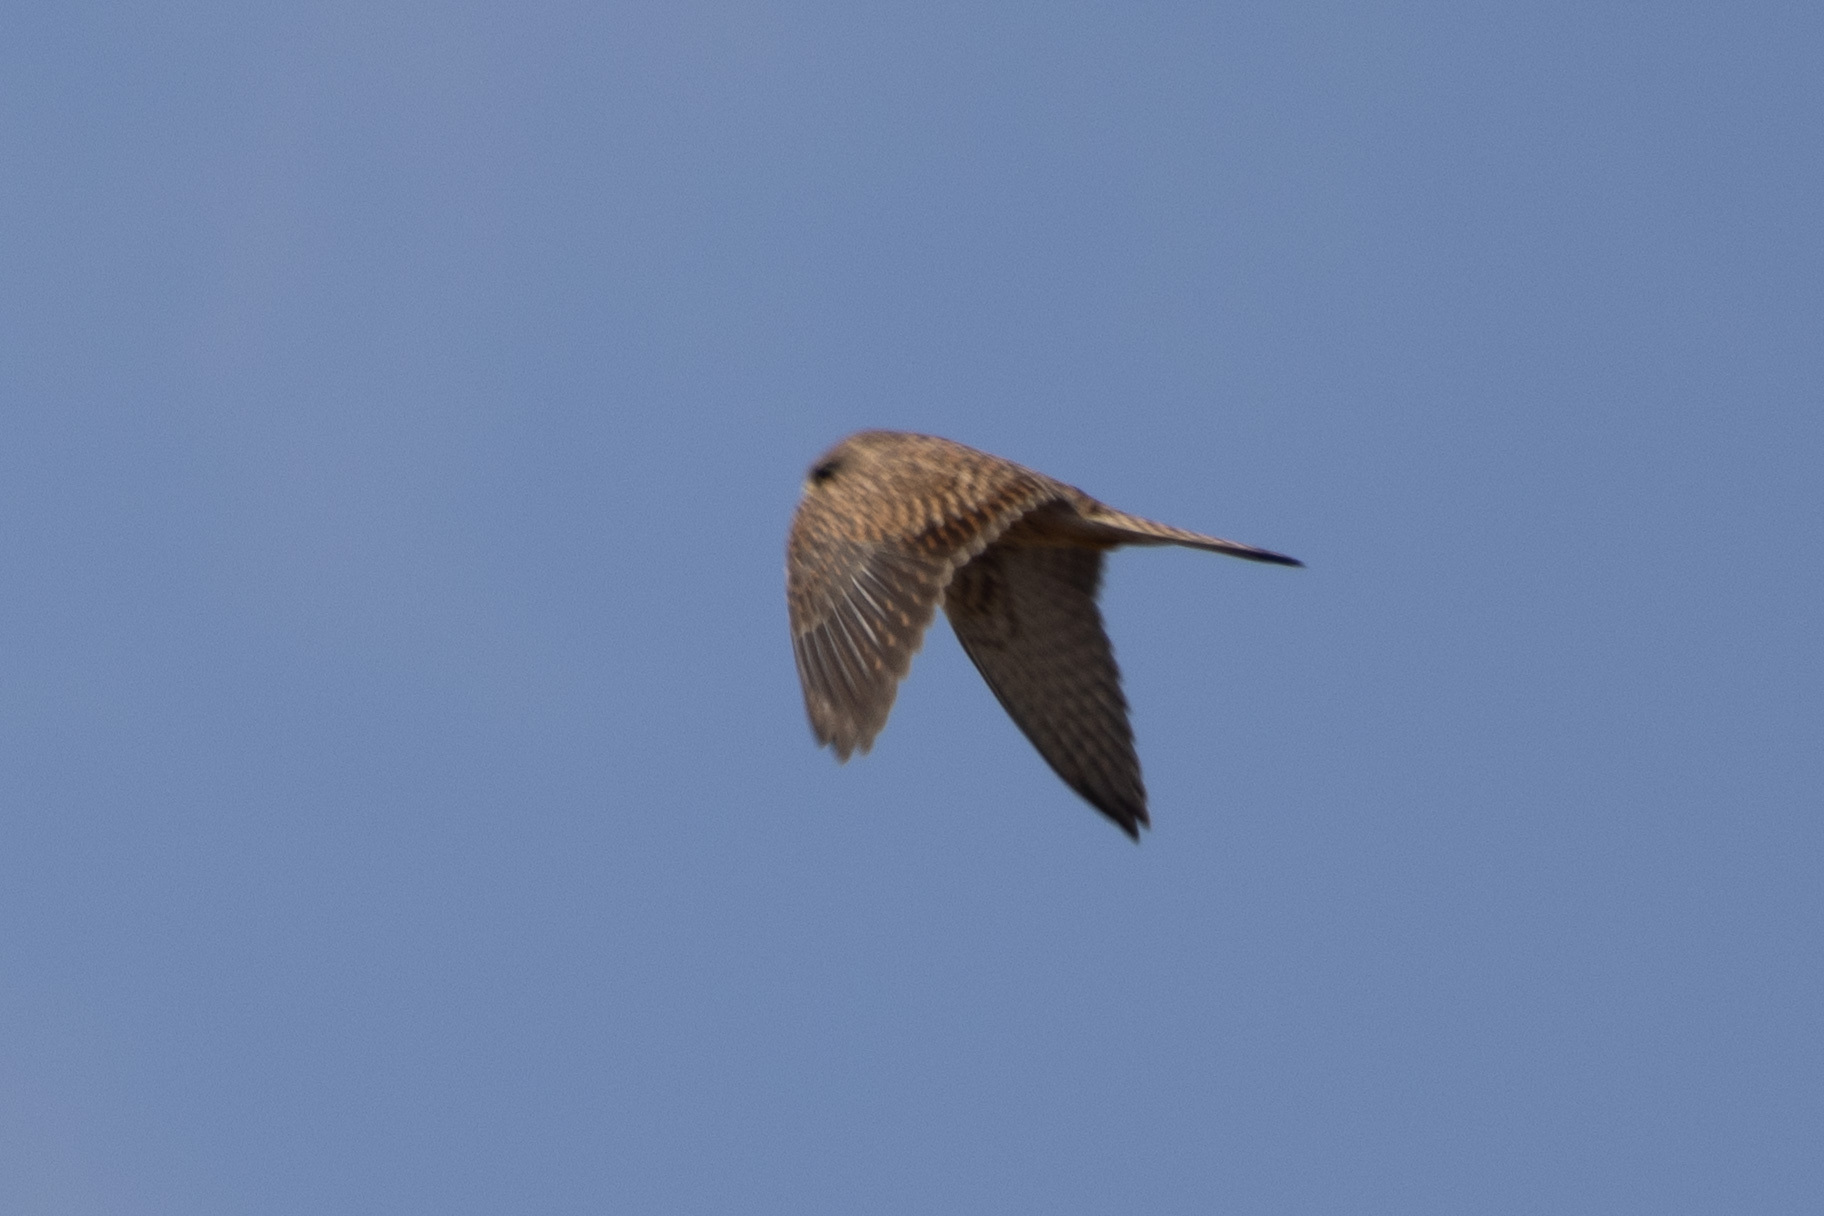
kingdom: Animalia
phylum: Chordata
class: Aves
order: Falconiformes
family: Falconidae
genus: Falco
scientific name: Falco tinnunculus
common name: Common kestrel
